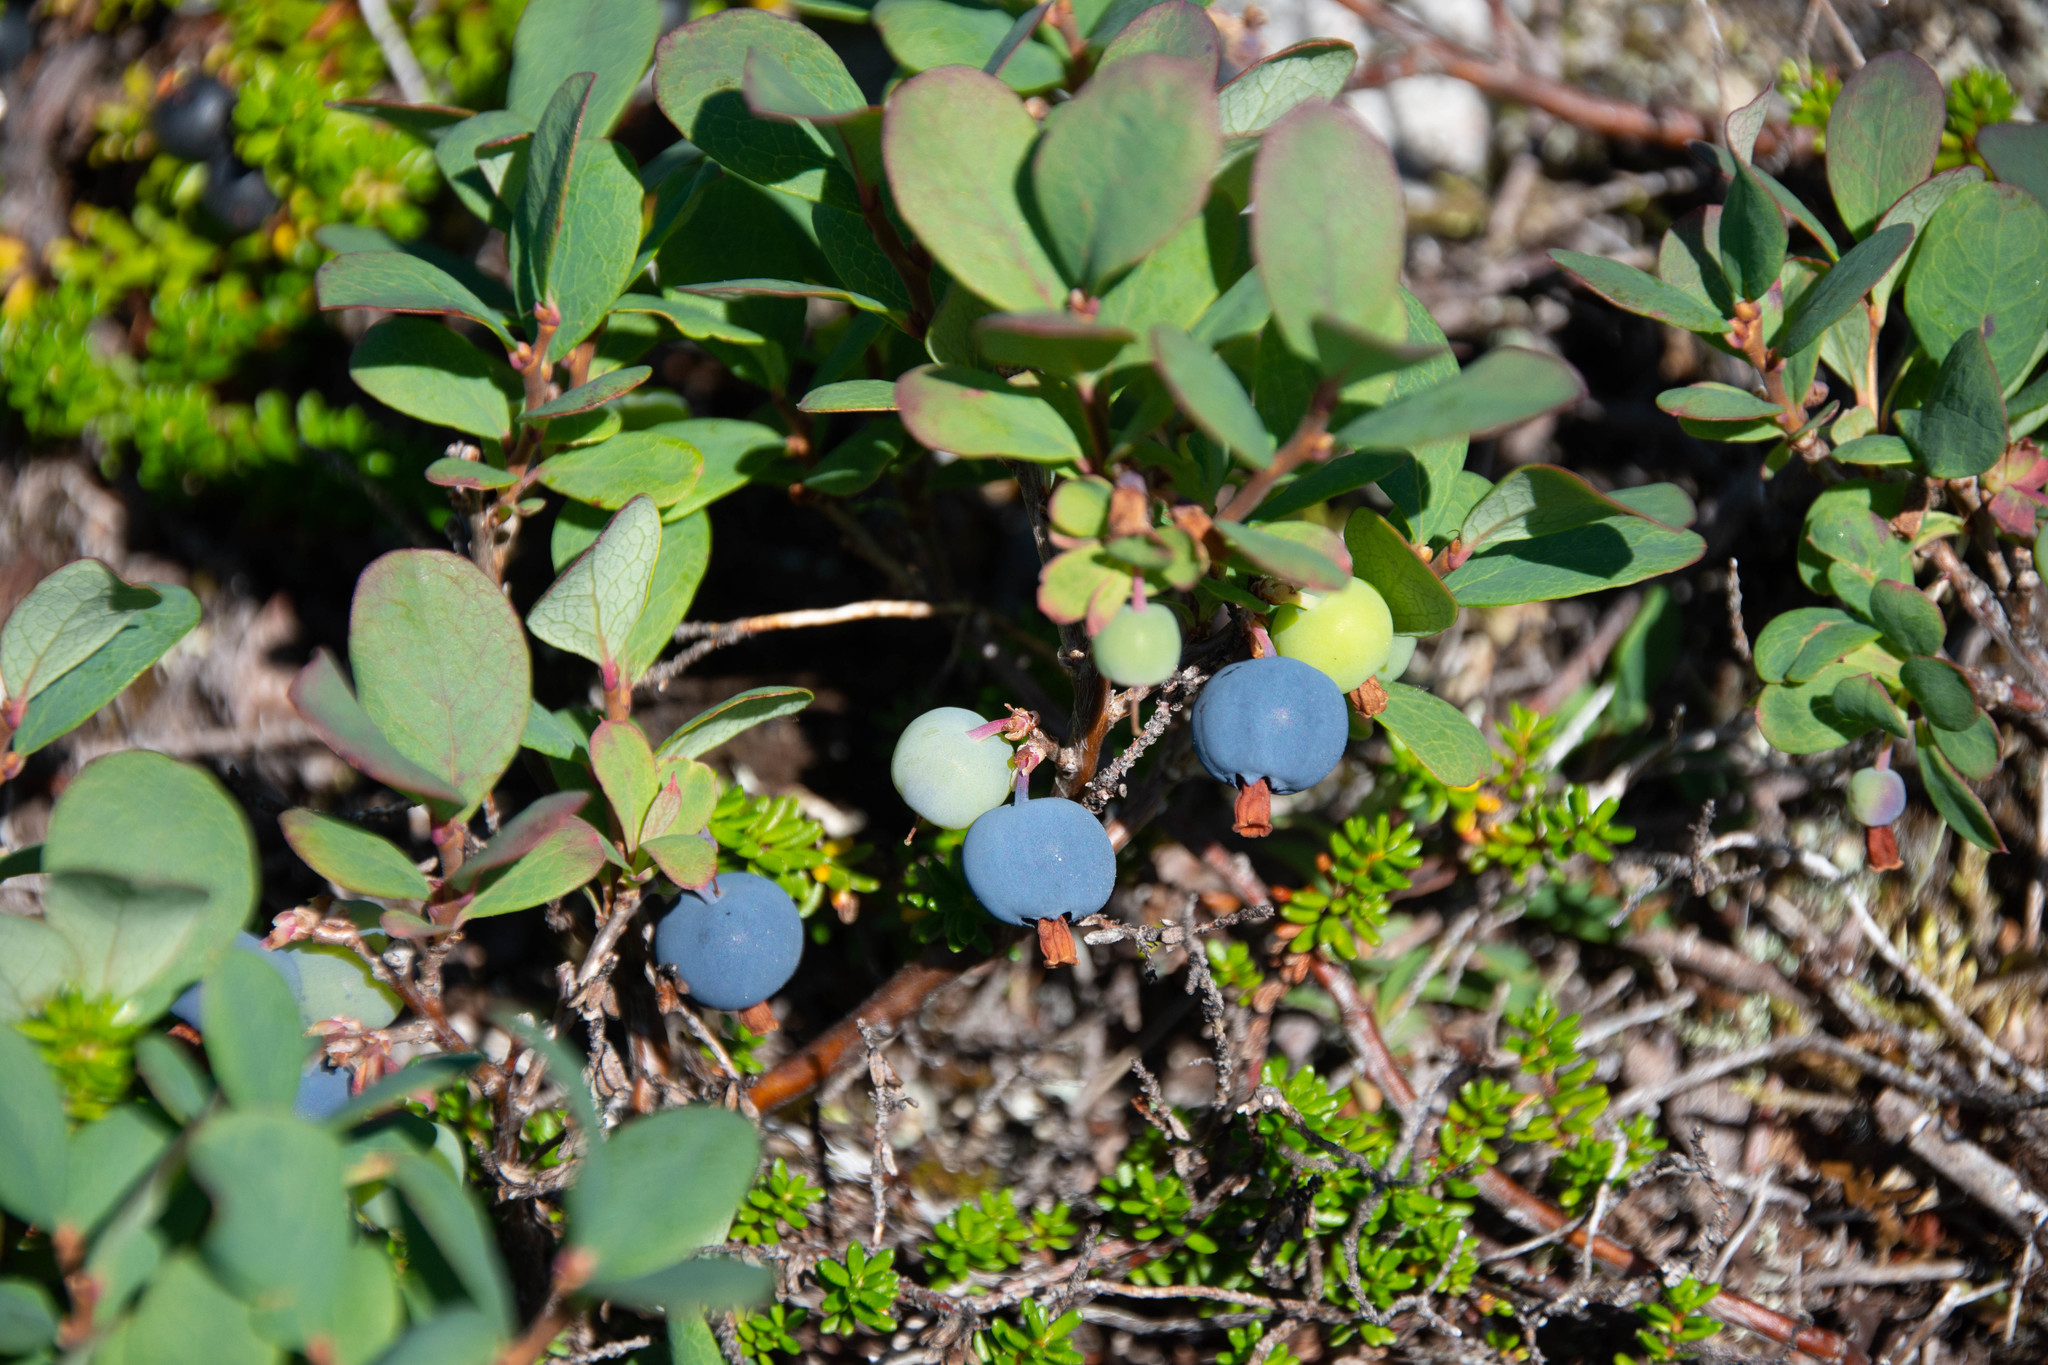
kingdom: Plantae
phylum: Tracheophyta
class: Magnoliopsida
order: Ericales
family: Ericaceae
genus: Vaccinium
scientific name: Vaccinium uliginosum
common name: Bog bilberry
